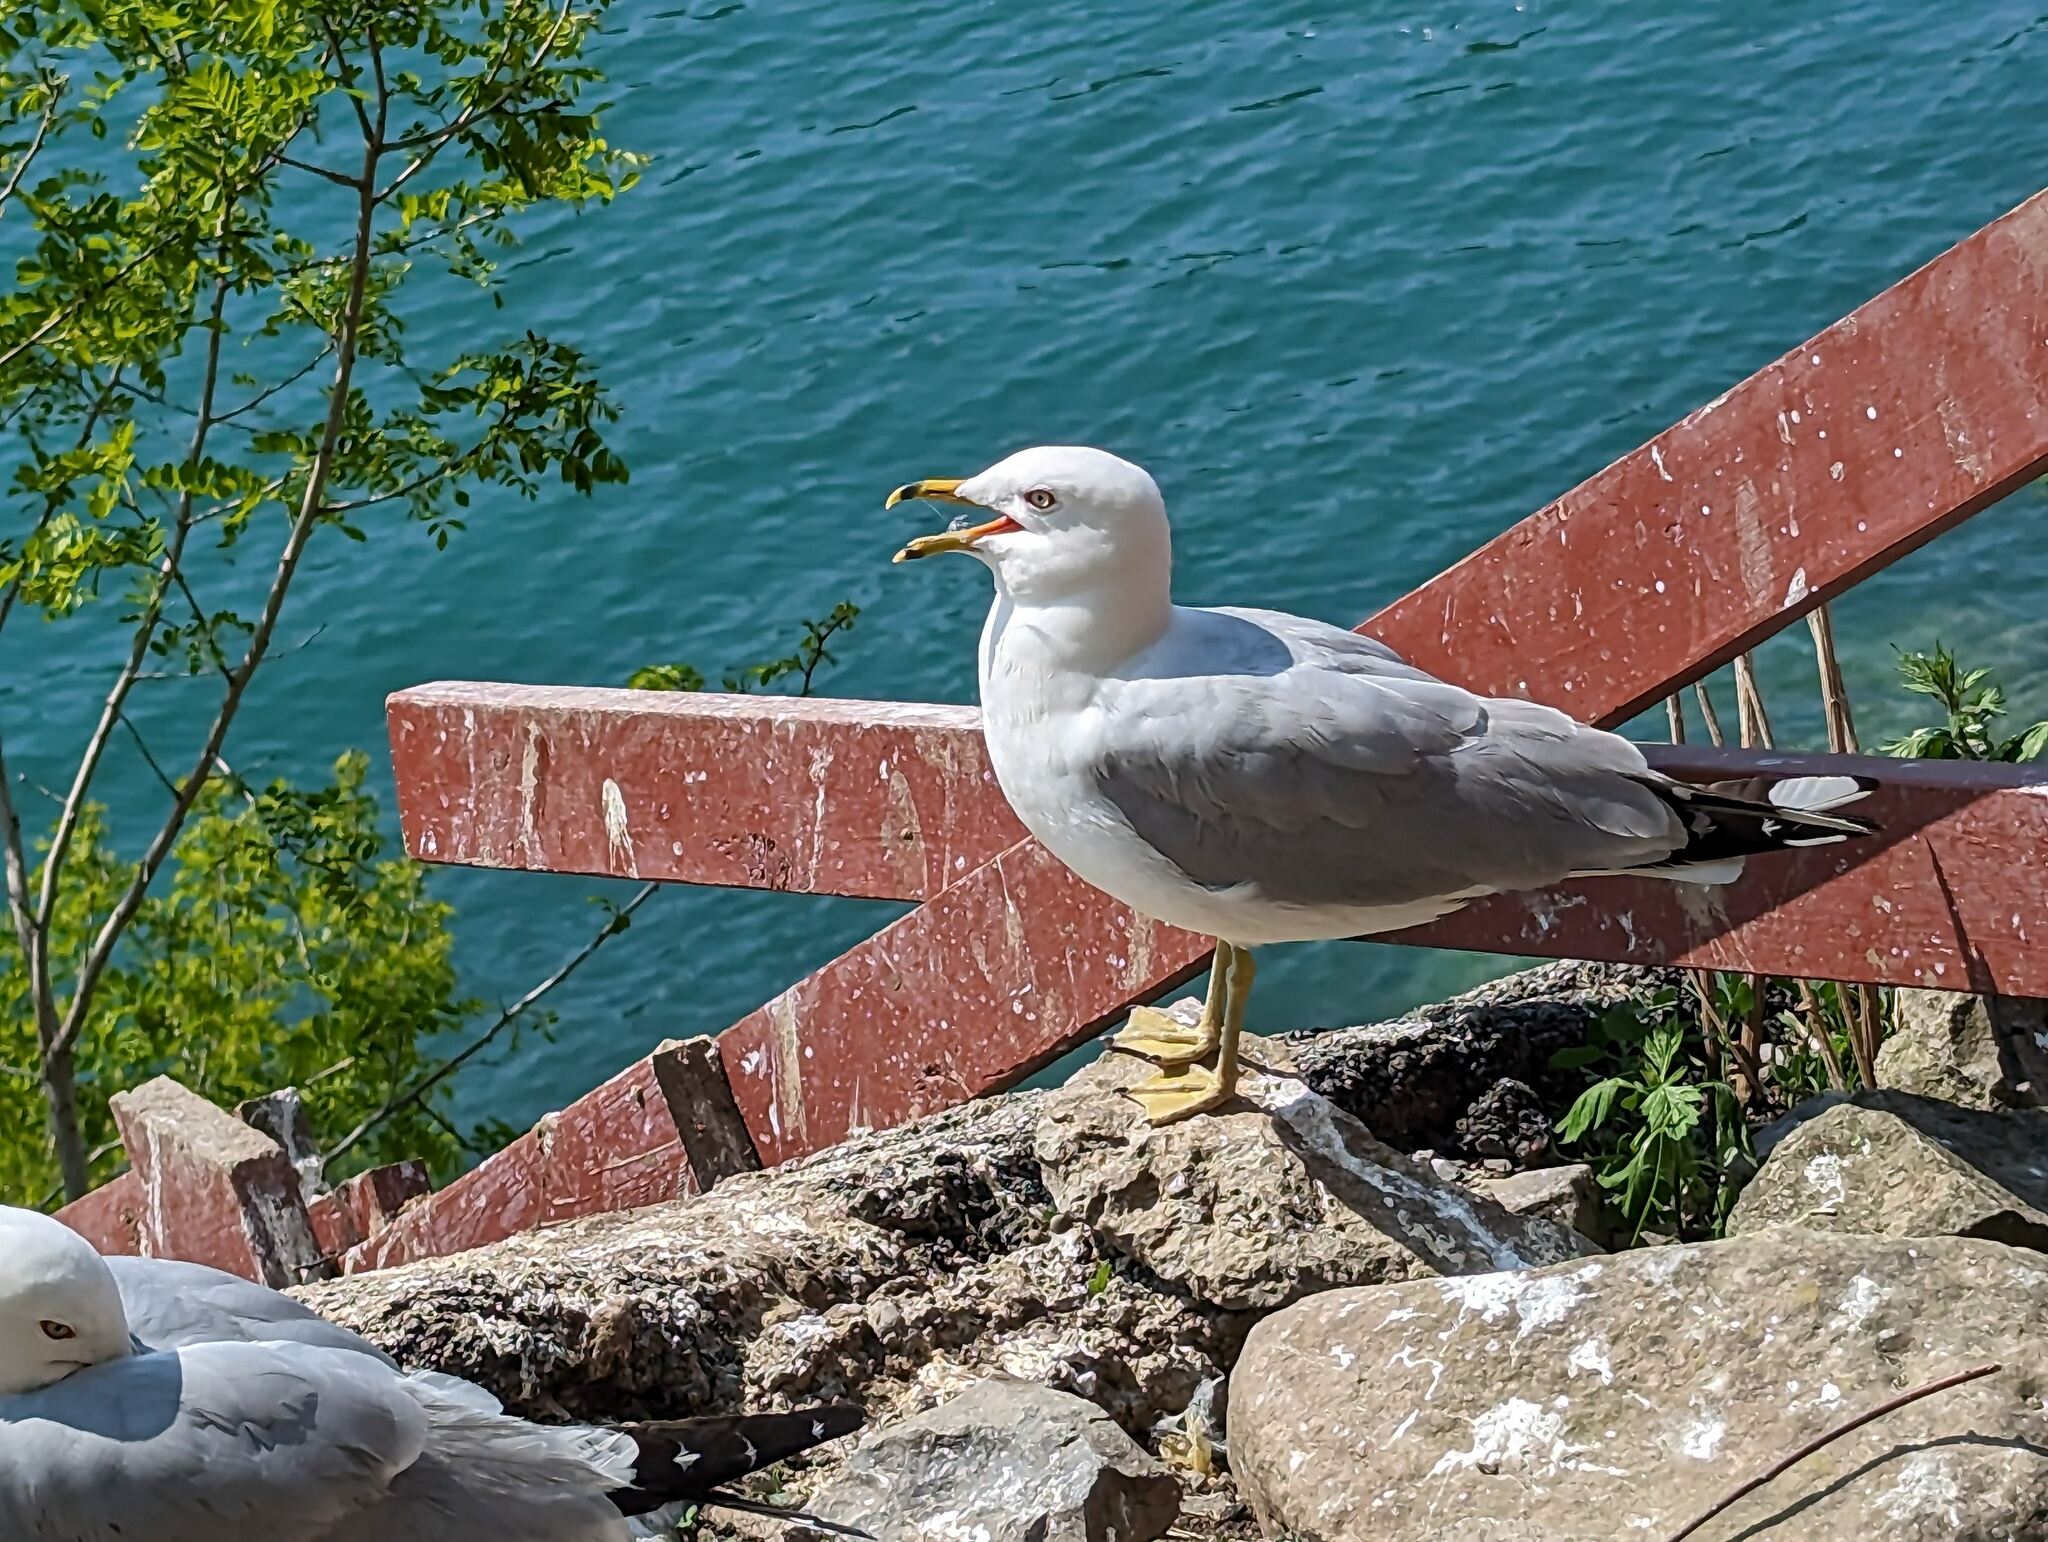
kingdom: Animalia
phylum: Chordata
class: Aves
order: Charadriiformes
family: Laridae
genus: Larus
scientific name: Larus delawarensis
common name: Ring-billed gull
